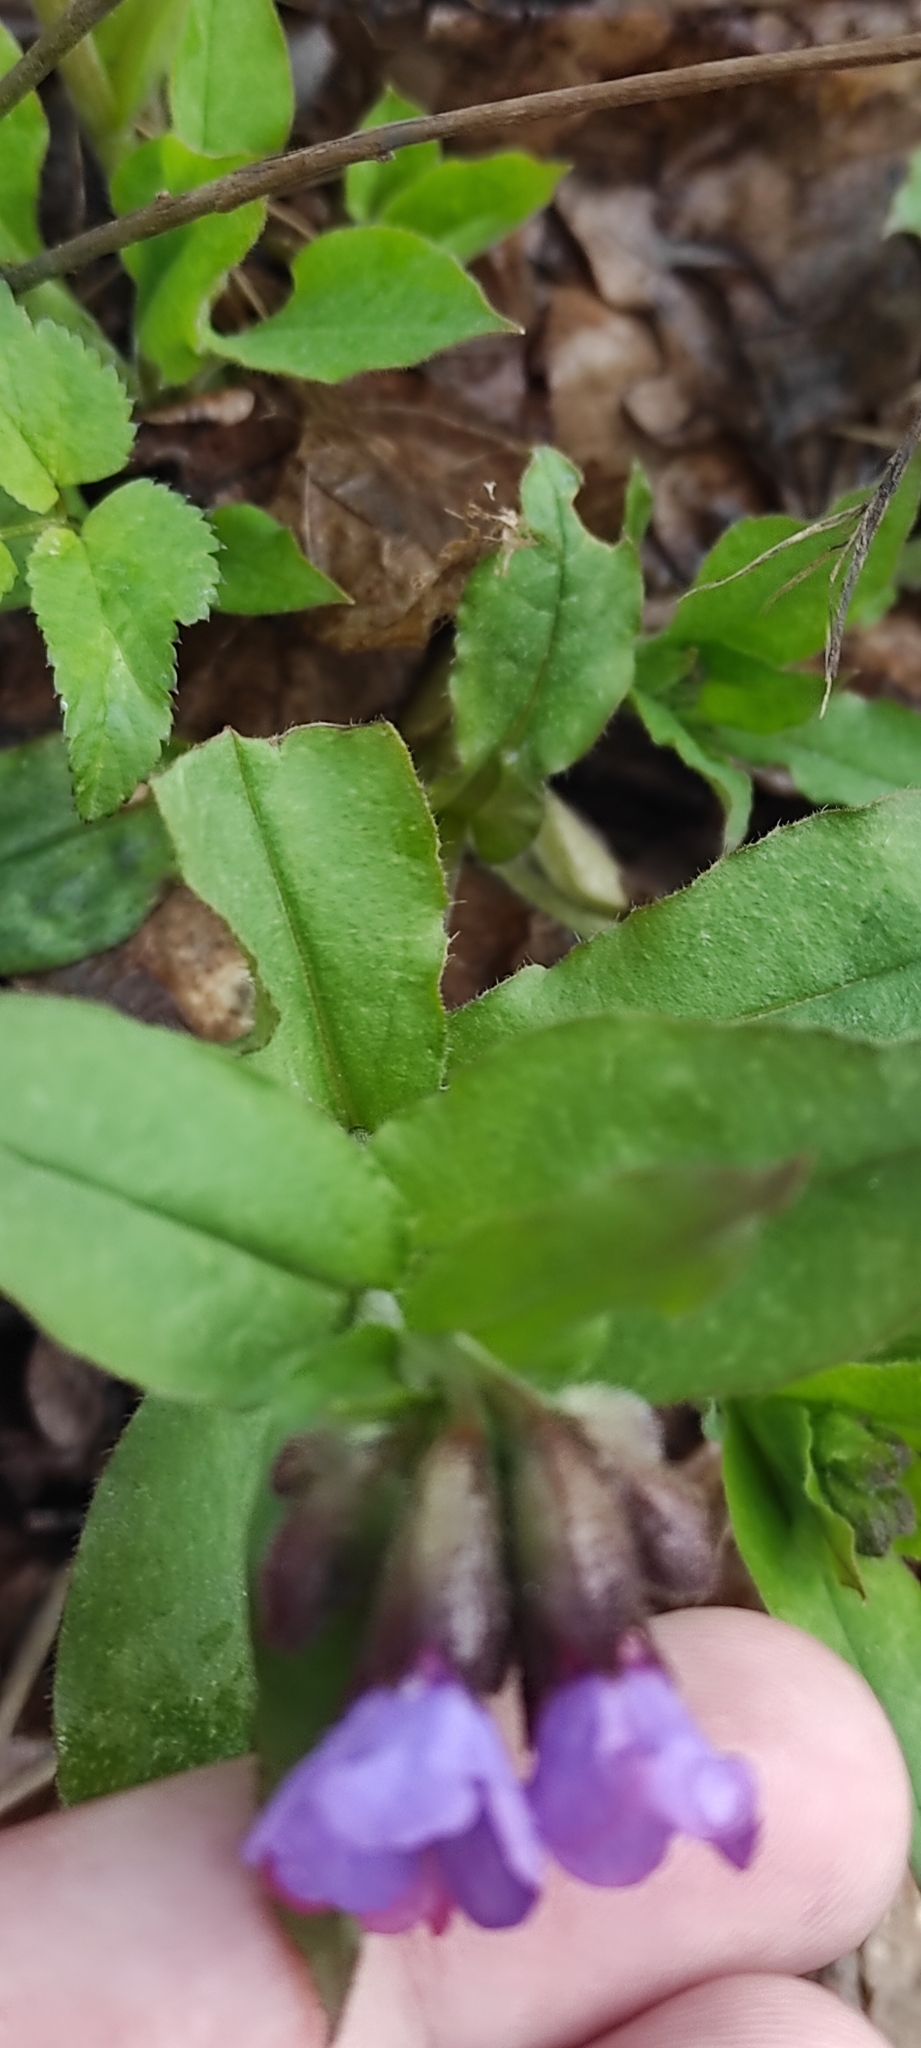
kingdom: Plantae
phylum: Tracheophyta
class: Magnoliopsida
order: Boraginales
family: Boraginaceae
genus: Pulmonaria
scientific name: Pulmonaria obscura
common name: Suffolk lungwort
